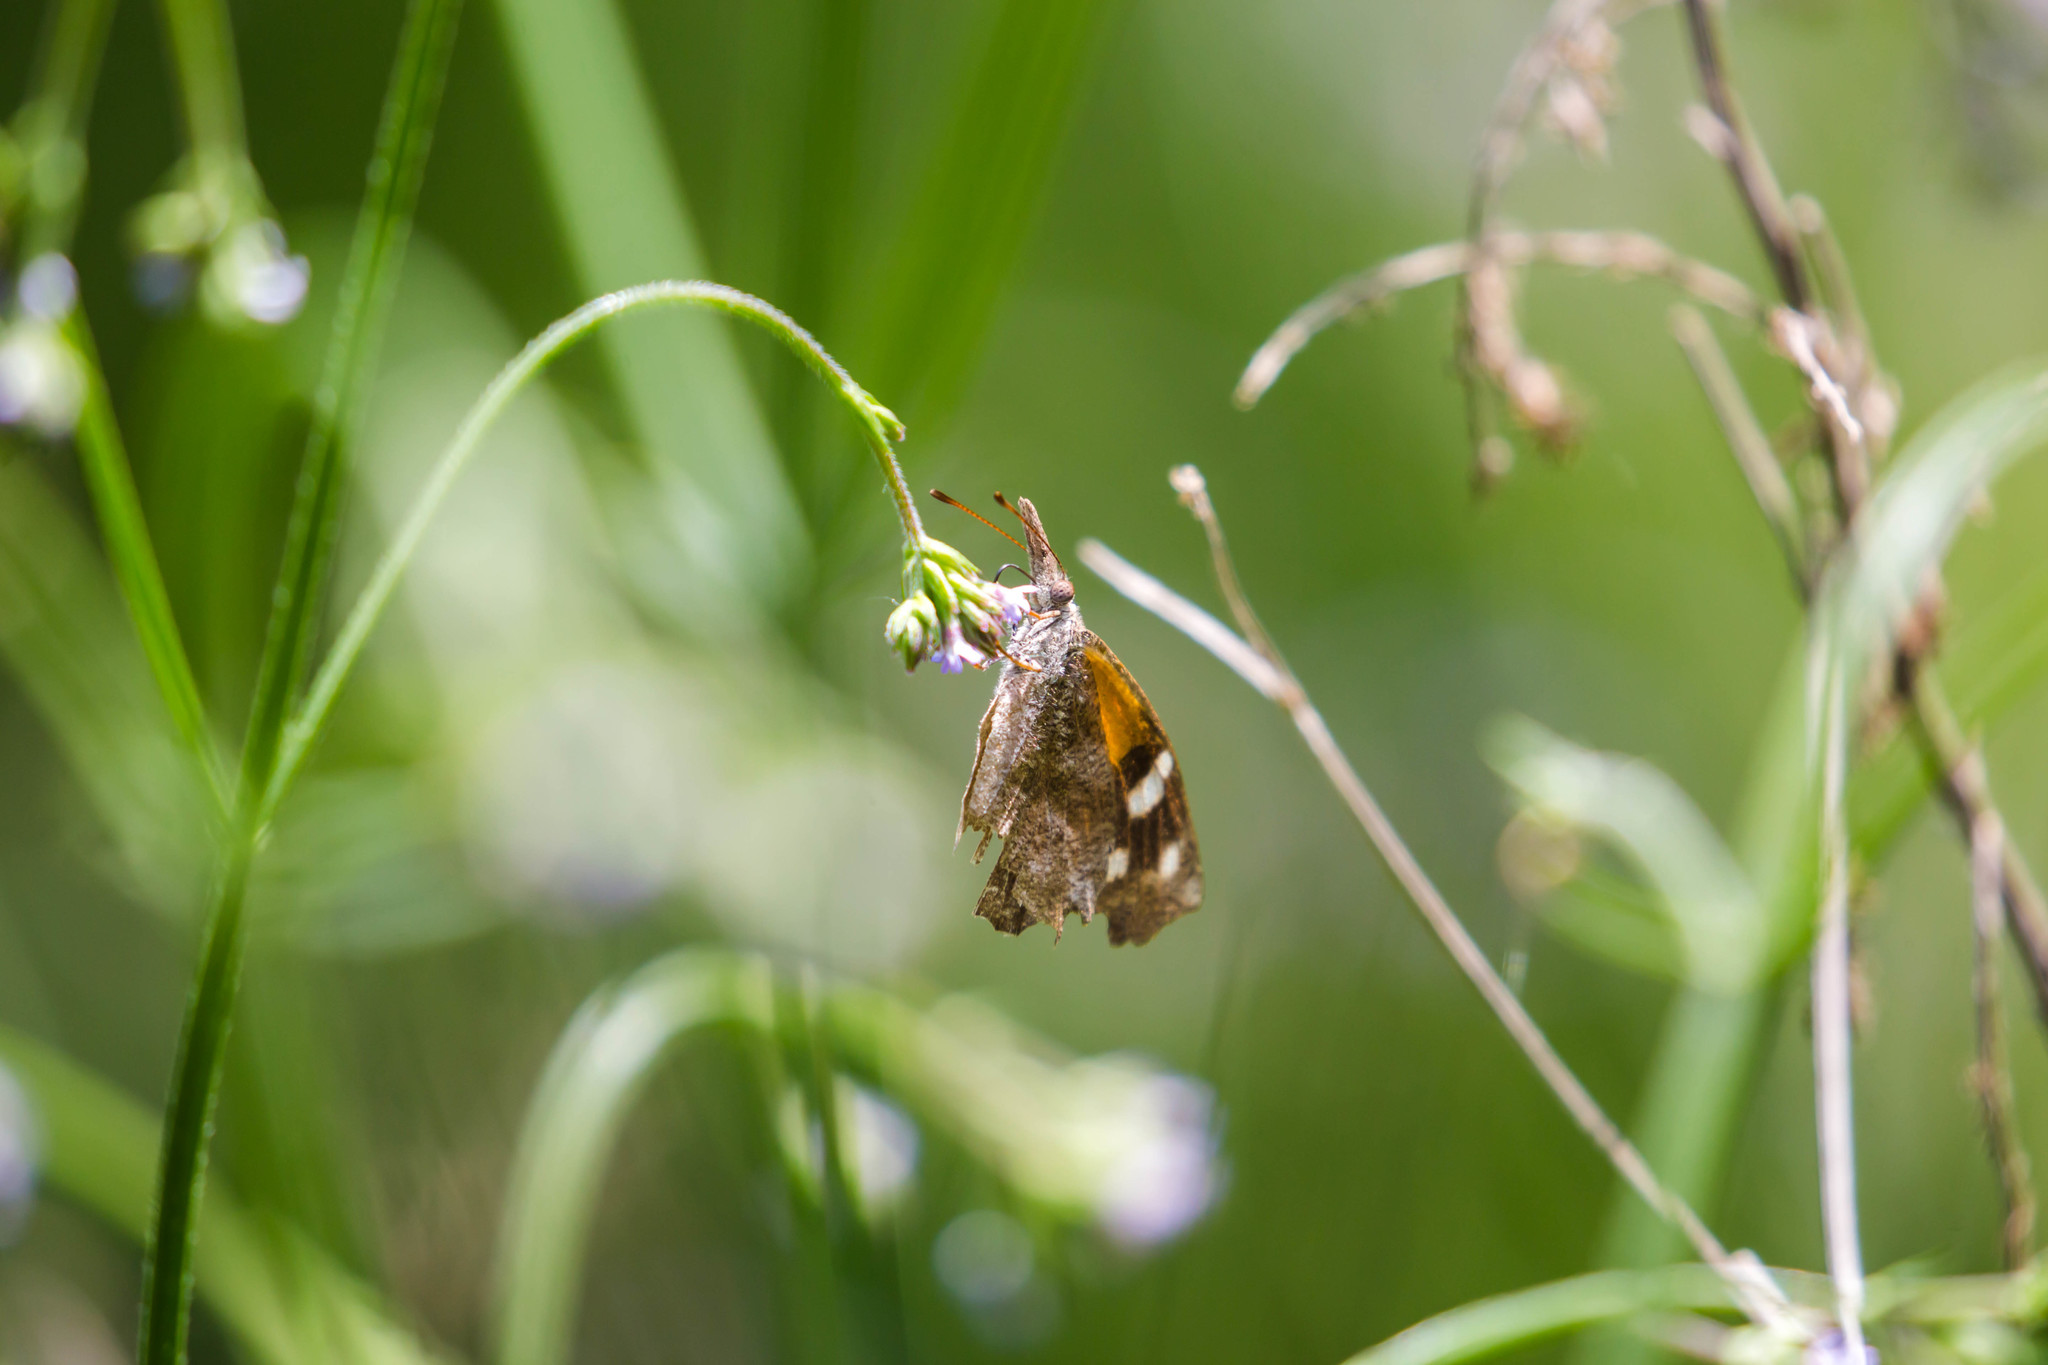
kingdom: Animalia
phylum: Arthropoda
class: Insecta
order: Lepidoptera
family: Nymphalidae
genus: Libytheana
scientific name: Libytheana carinenta
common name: American snout
